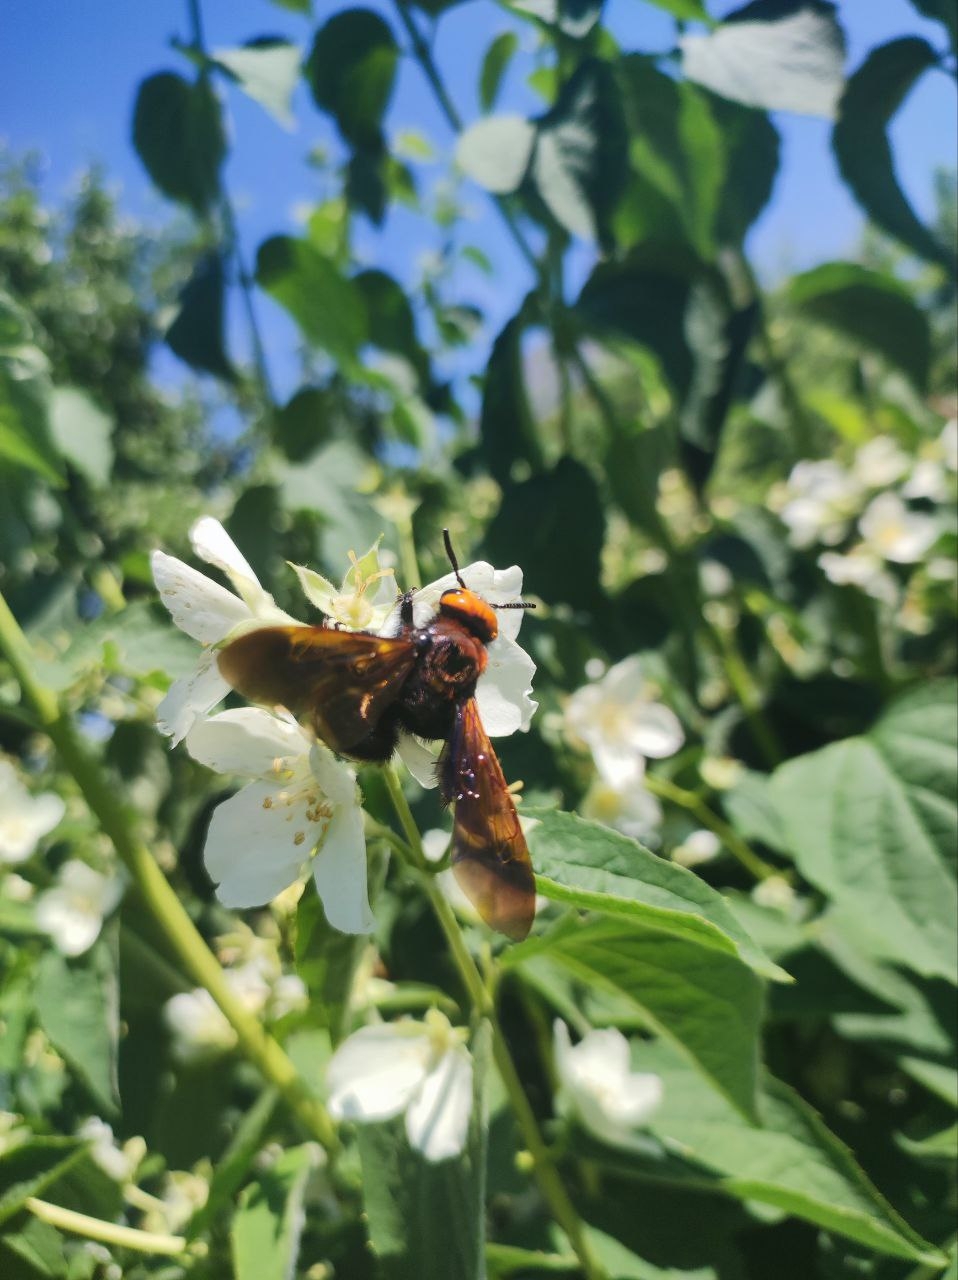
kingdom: Animalia
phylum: Arthropoda
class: Insecta
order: Hymenoptera
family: Scoliidae
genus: Megascolia
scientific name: Megascolia maculata
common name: Mammoth wasp
